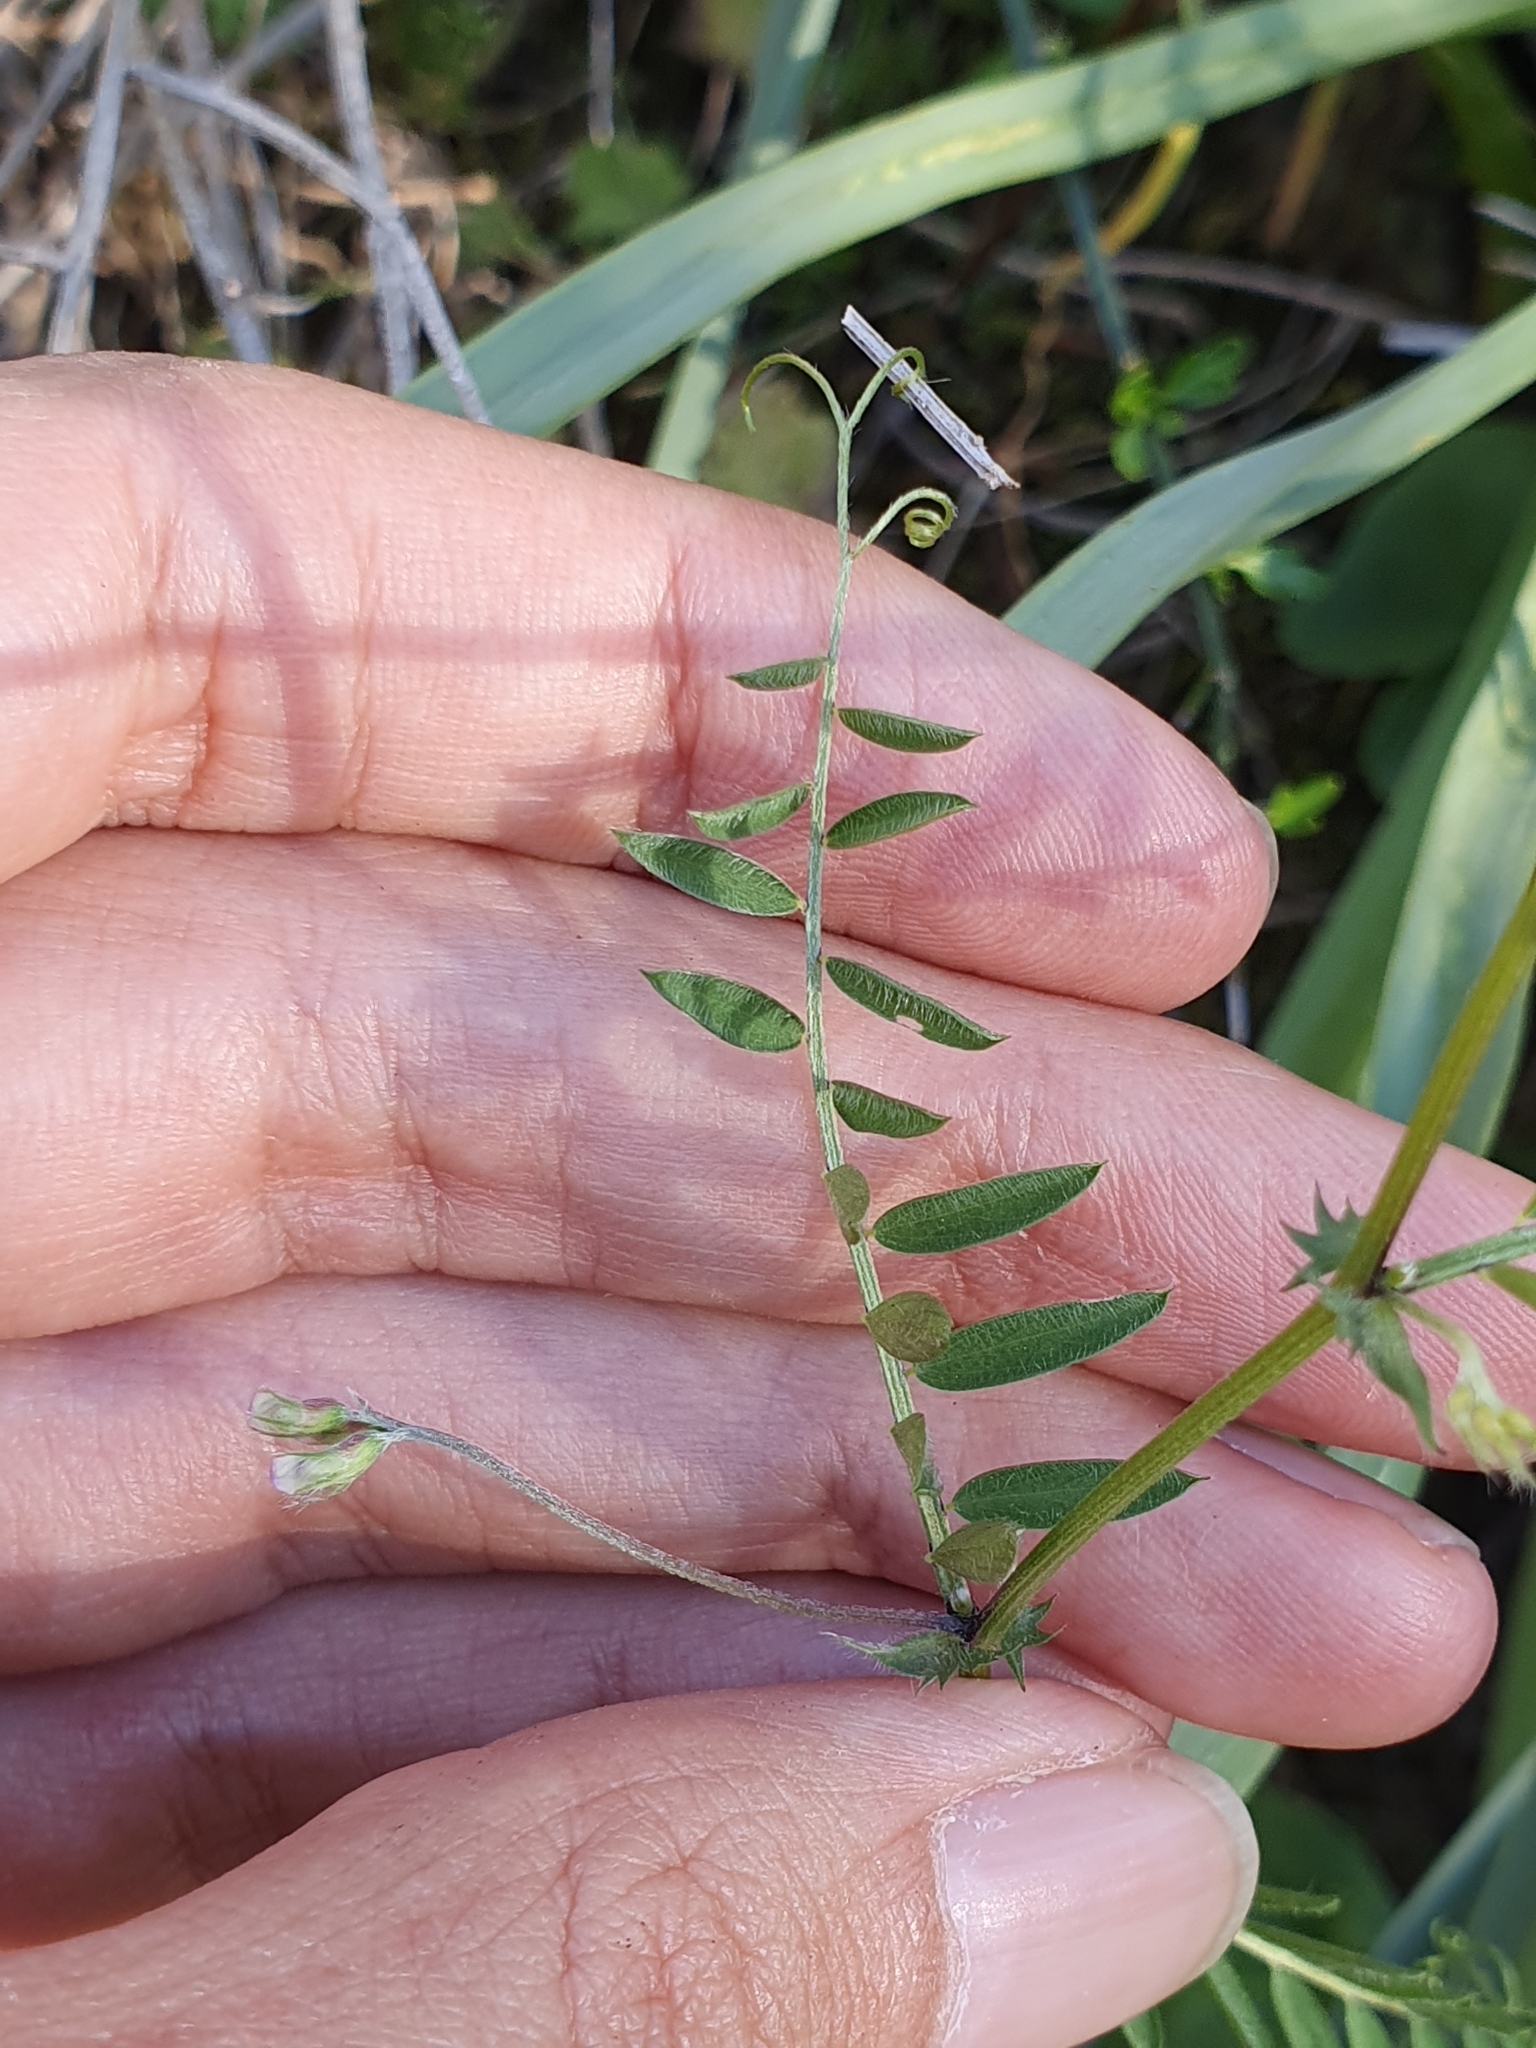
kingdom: Plantae
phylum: Tracheophyta
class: Magnoliopsida
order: Fabales
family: Fabaceae
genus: Vicia
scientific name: Vicia hirsuta
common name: Tiny vetch
